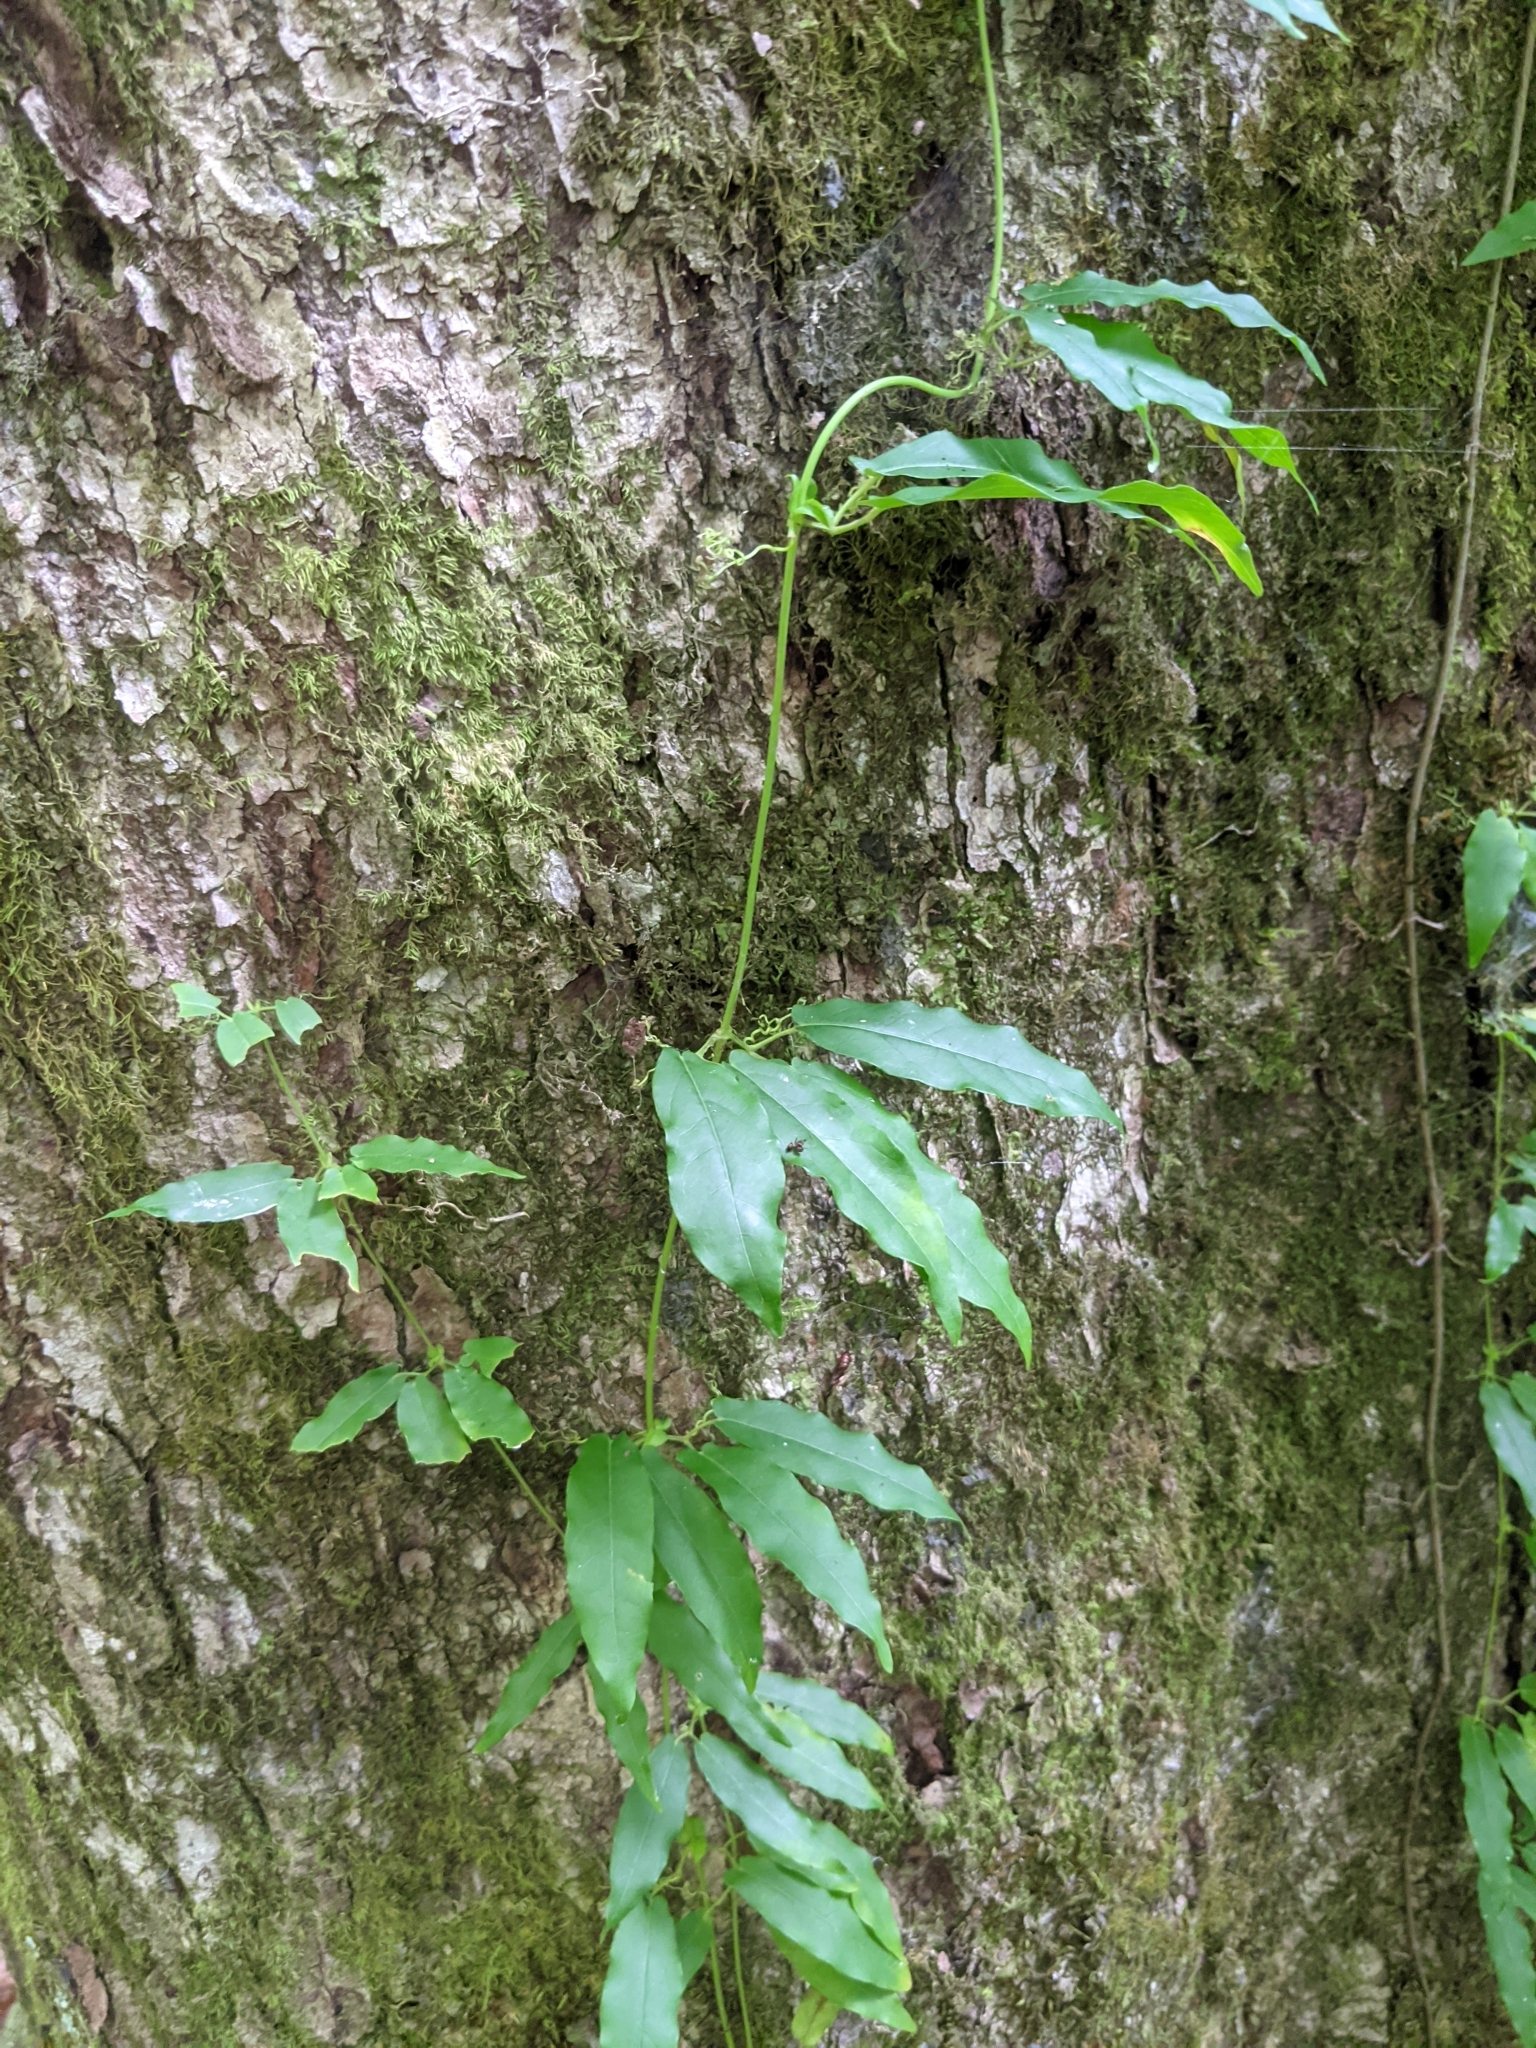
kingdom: Plantae
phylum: Tracheophyta
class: Magnoliopsida
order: Lamiales
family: Bignoniaceae
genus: Bignonia
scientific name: Bignonia capreolata
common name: Crossvine
